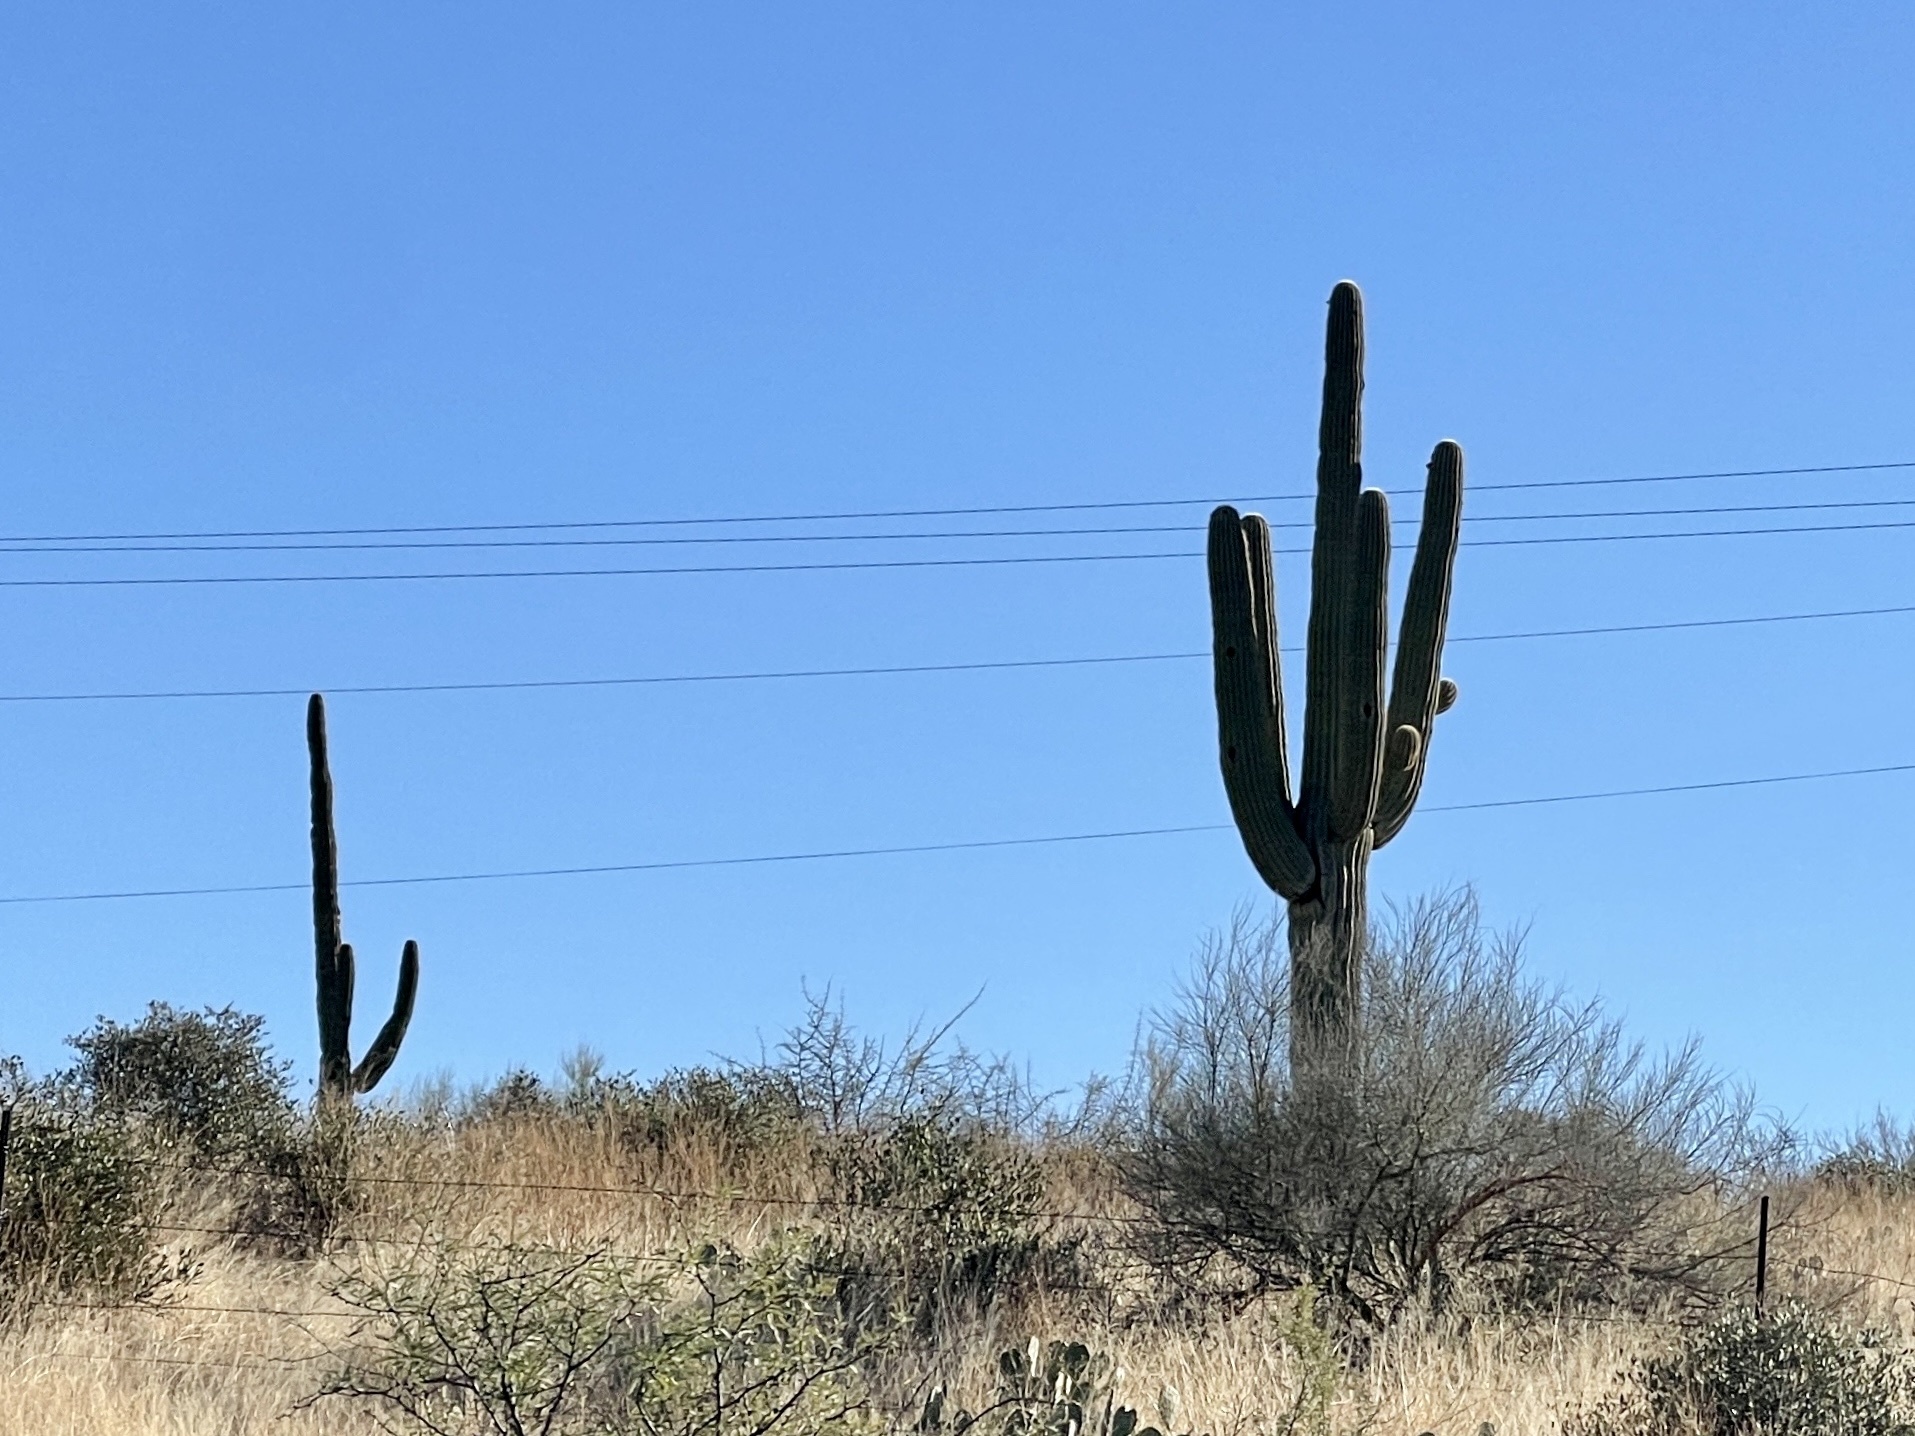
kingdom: Plantae
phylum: Tracheophyta
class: Magnoliopsida
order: Caryophyllales
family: Cactaceae
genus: Carnegiea
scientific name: Carnegiea gigantea
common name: Saguaro
